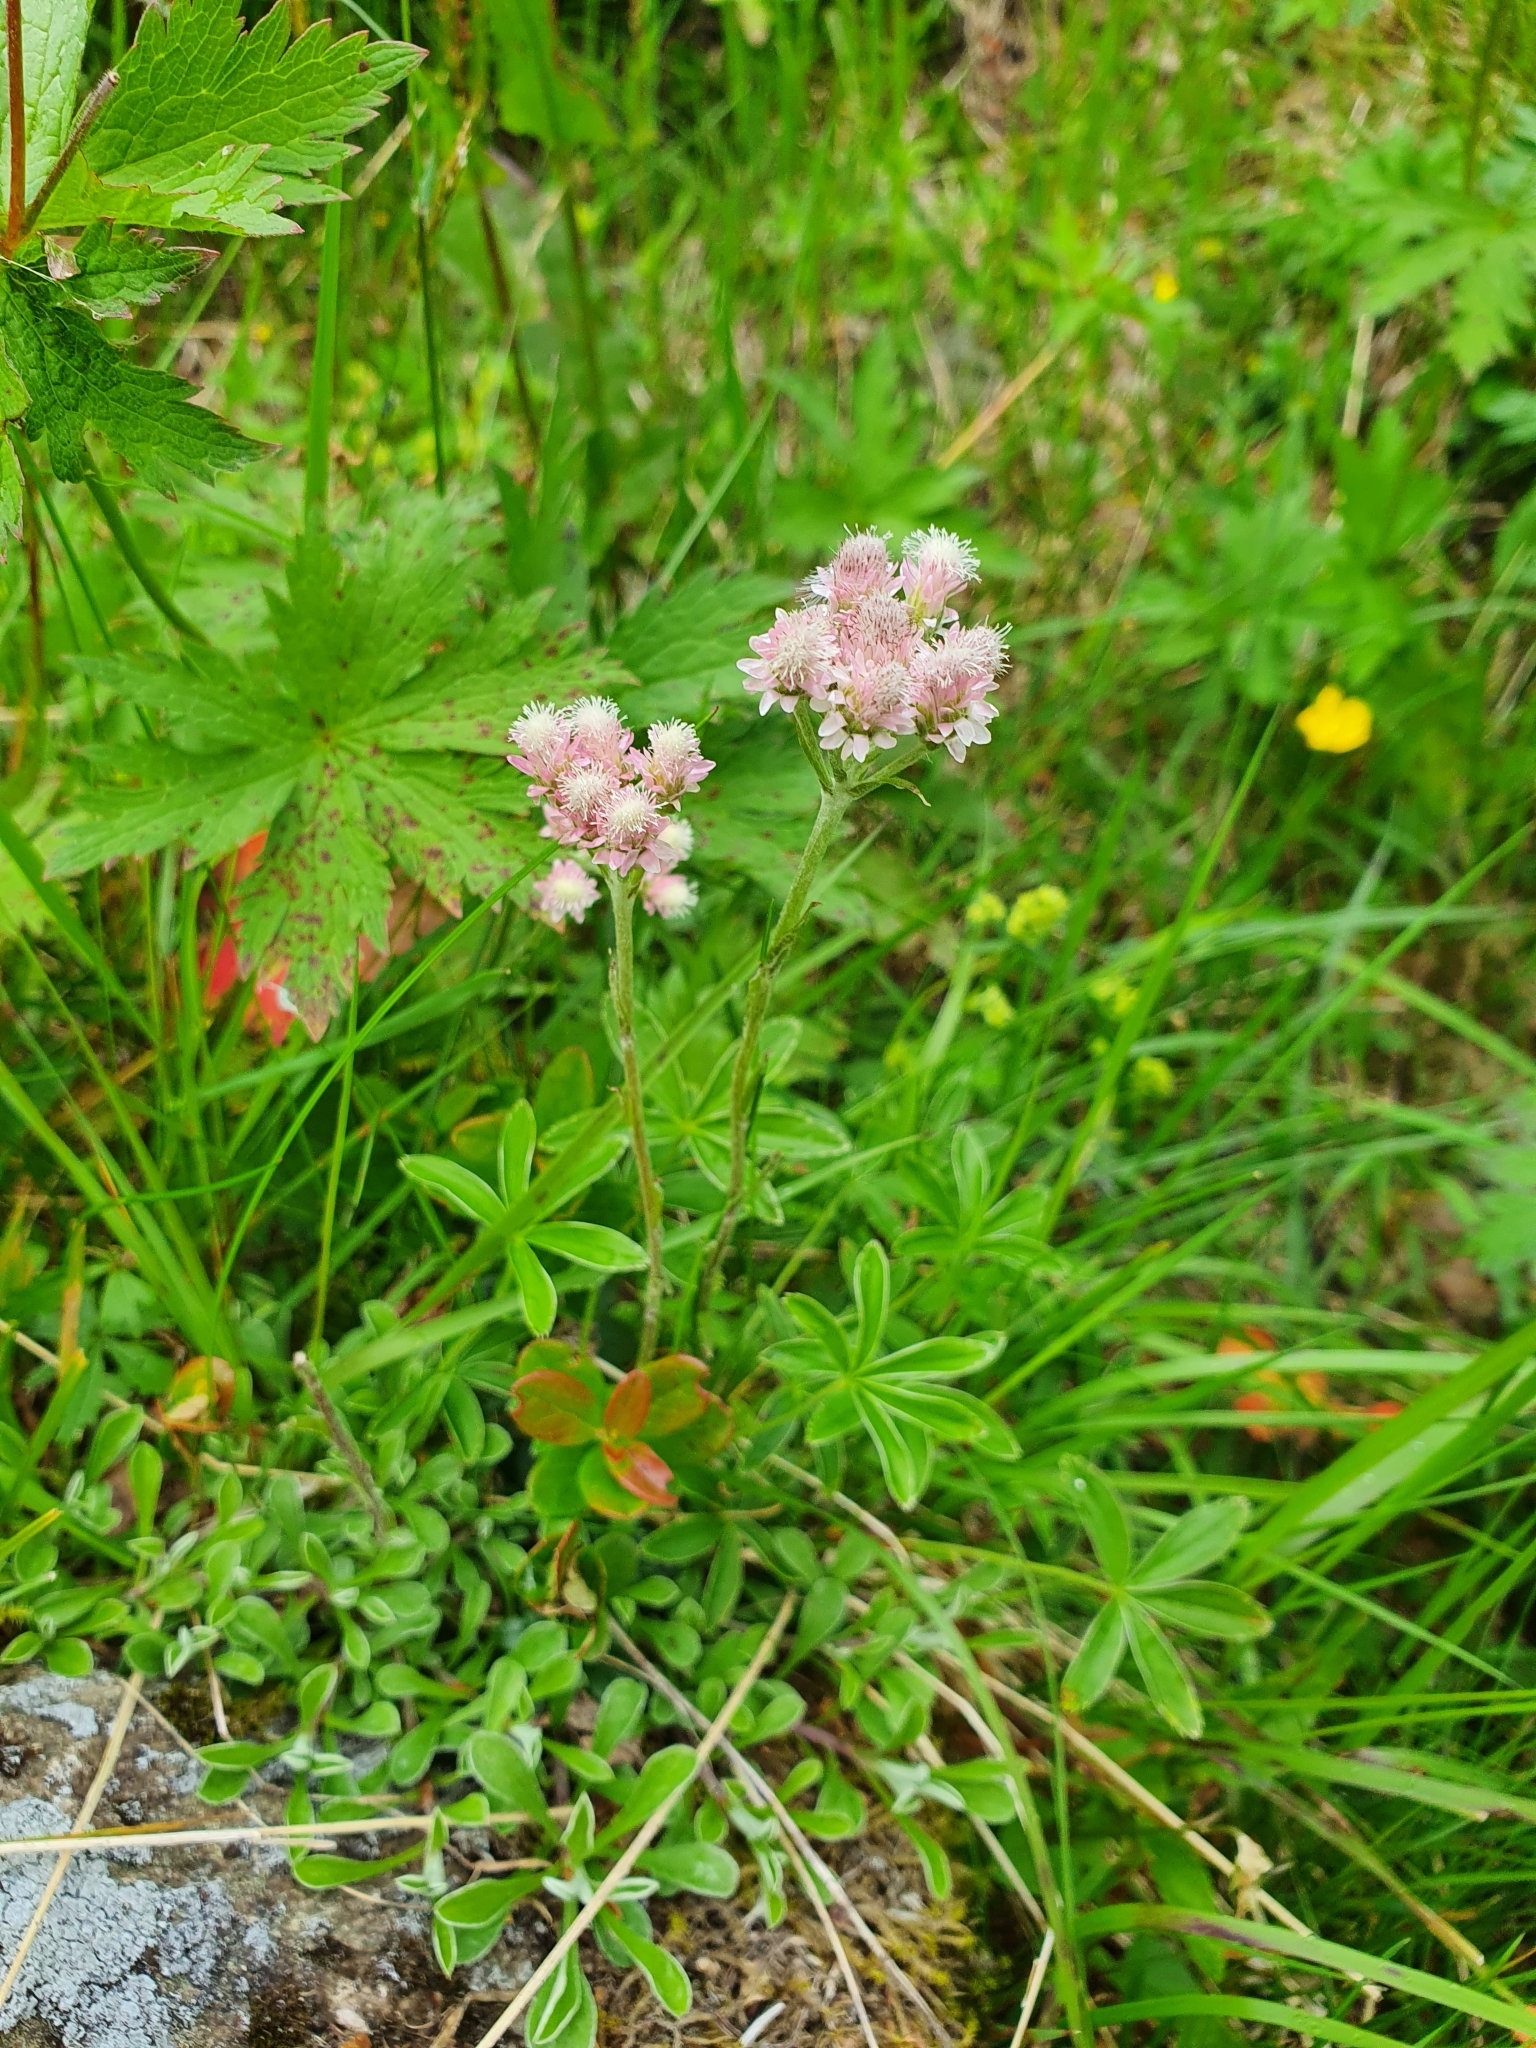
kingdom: Plantae
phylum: Tracheophyta
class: Magnoliopsida
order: Asterales
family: Asteraceae
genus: Antennaria
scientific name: Antennaria dioica
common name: Mountain everlasting
